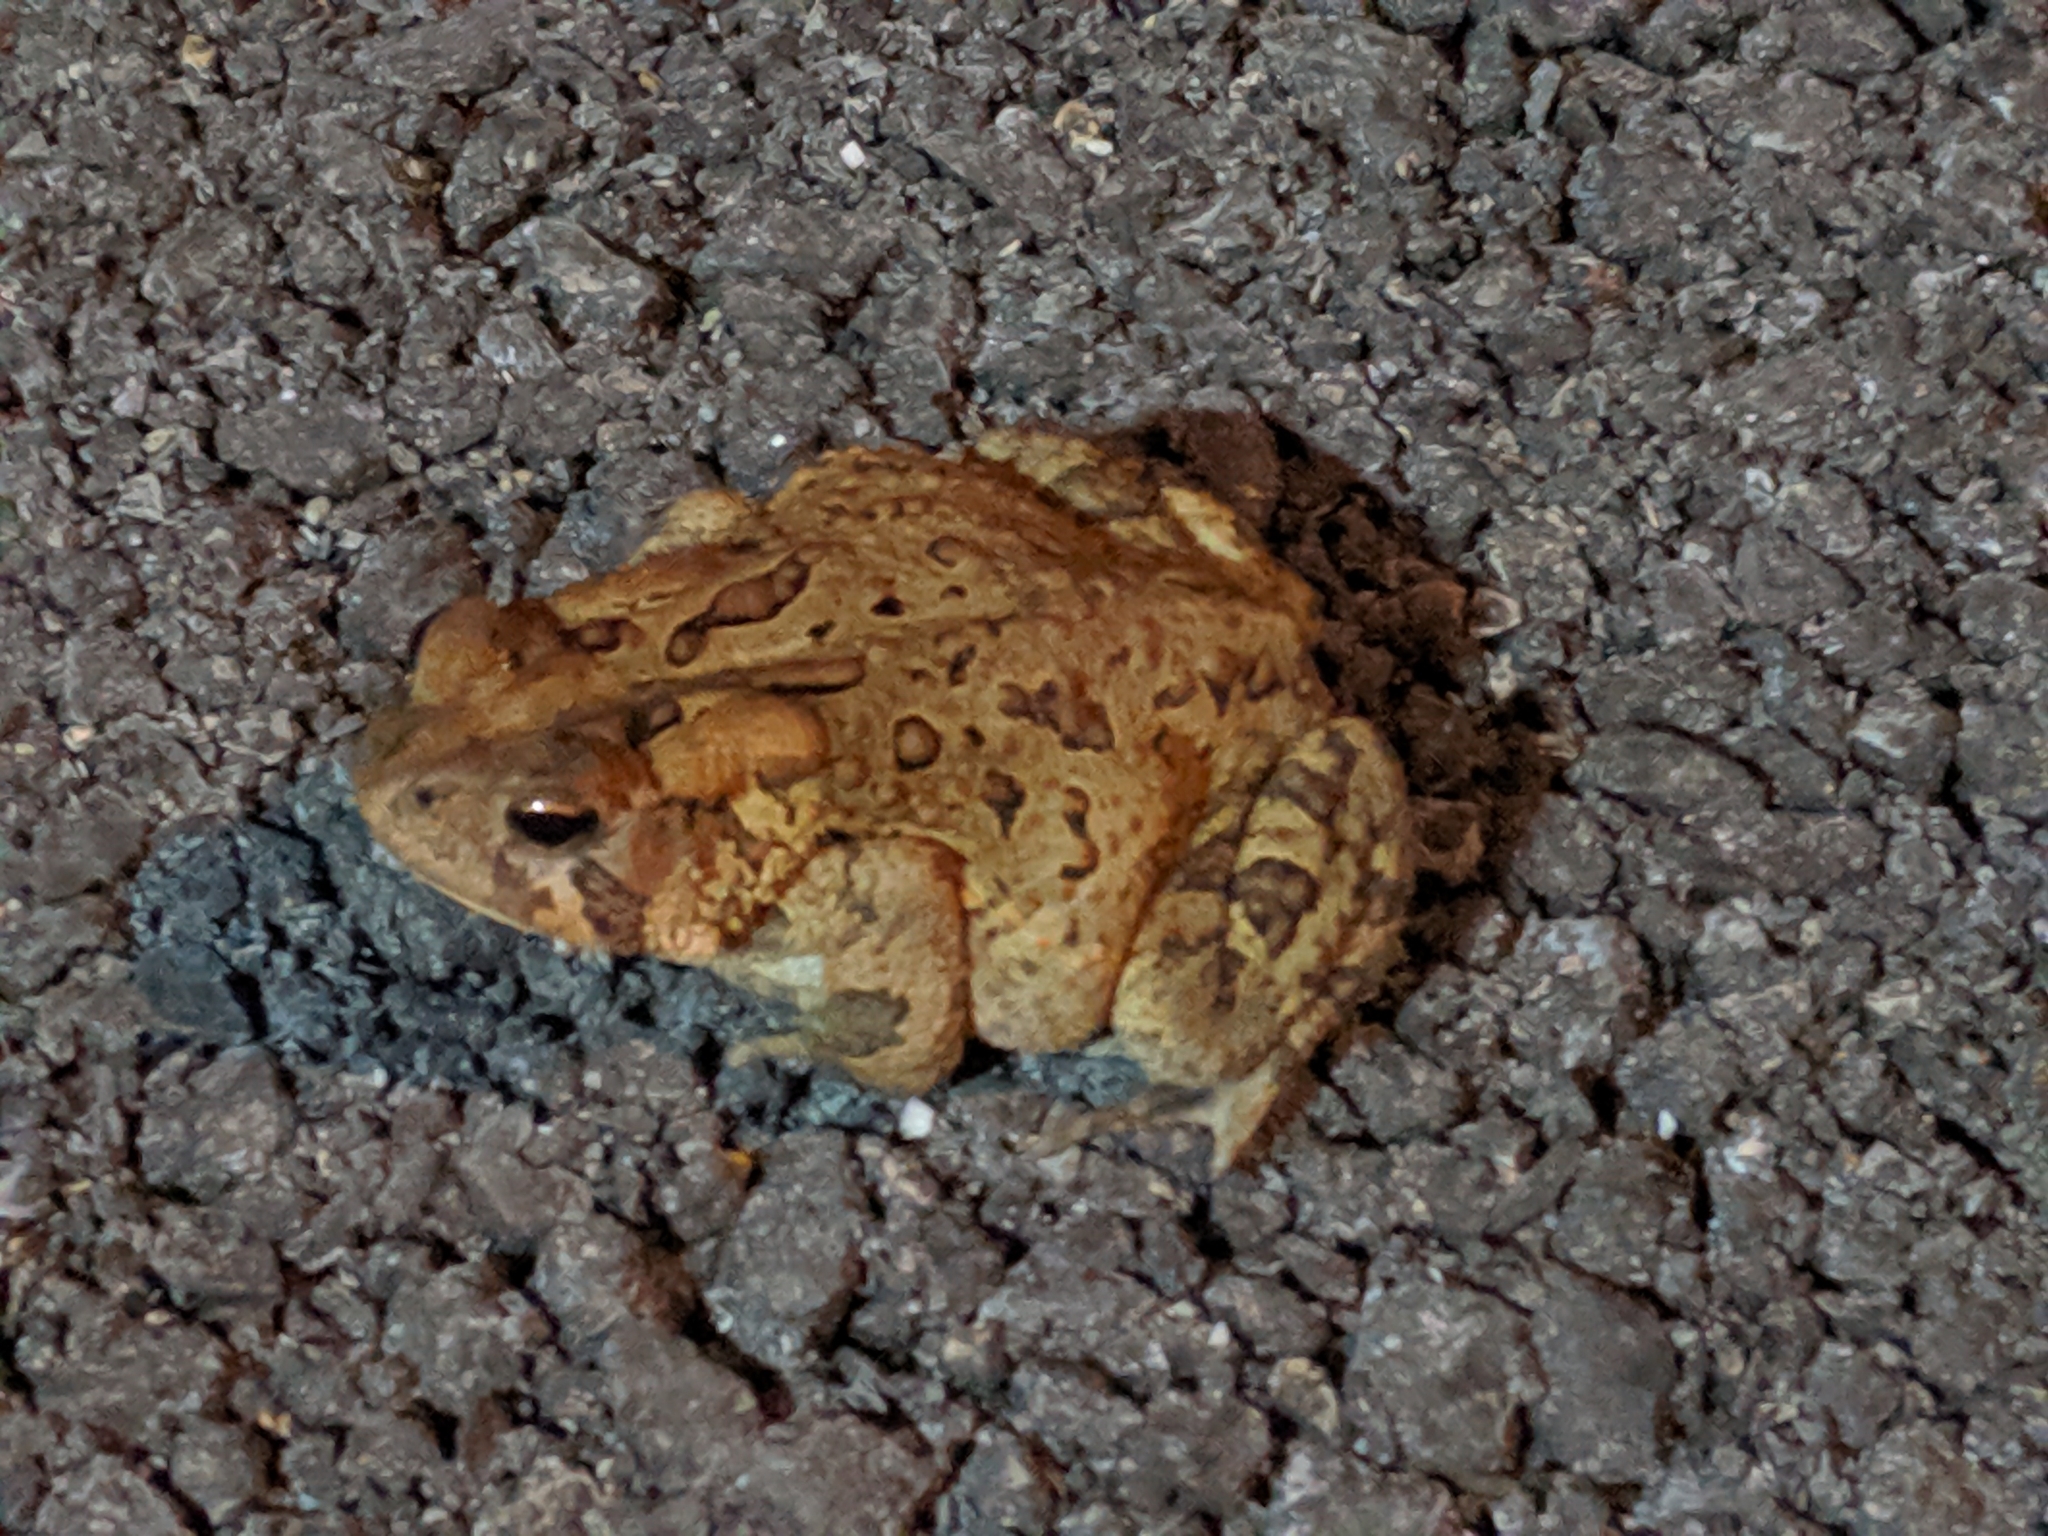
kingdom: Animalia
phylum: Chordata
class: Amphibia
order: Anura
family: Bufonidae
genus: Anaxyrus
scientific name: Anaxyrus americanus
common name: American toad
